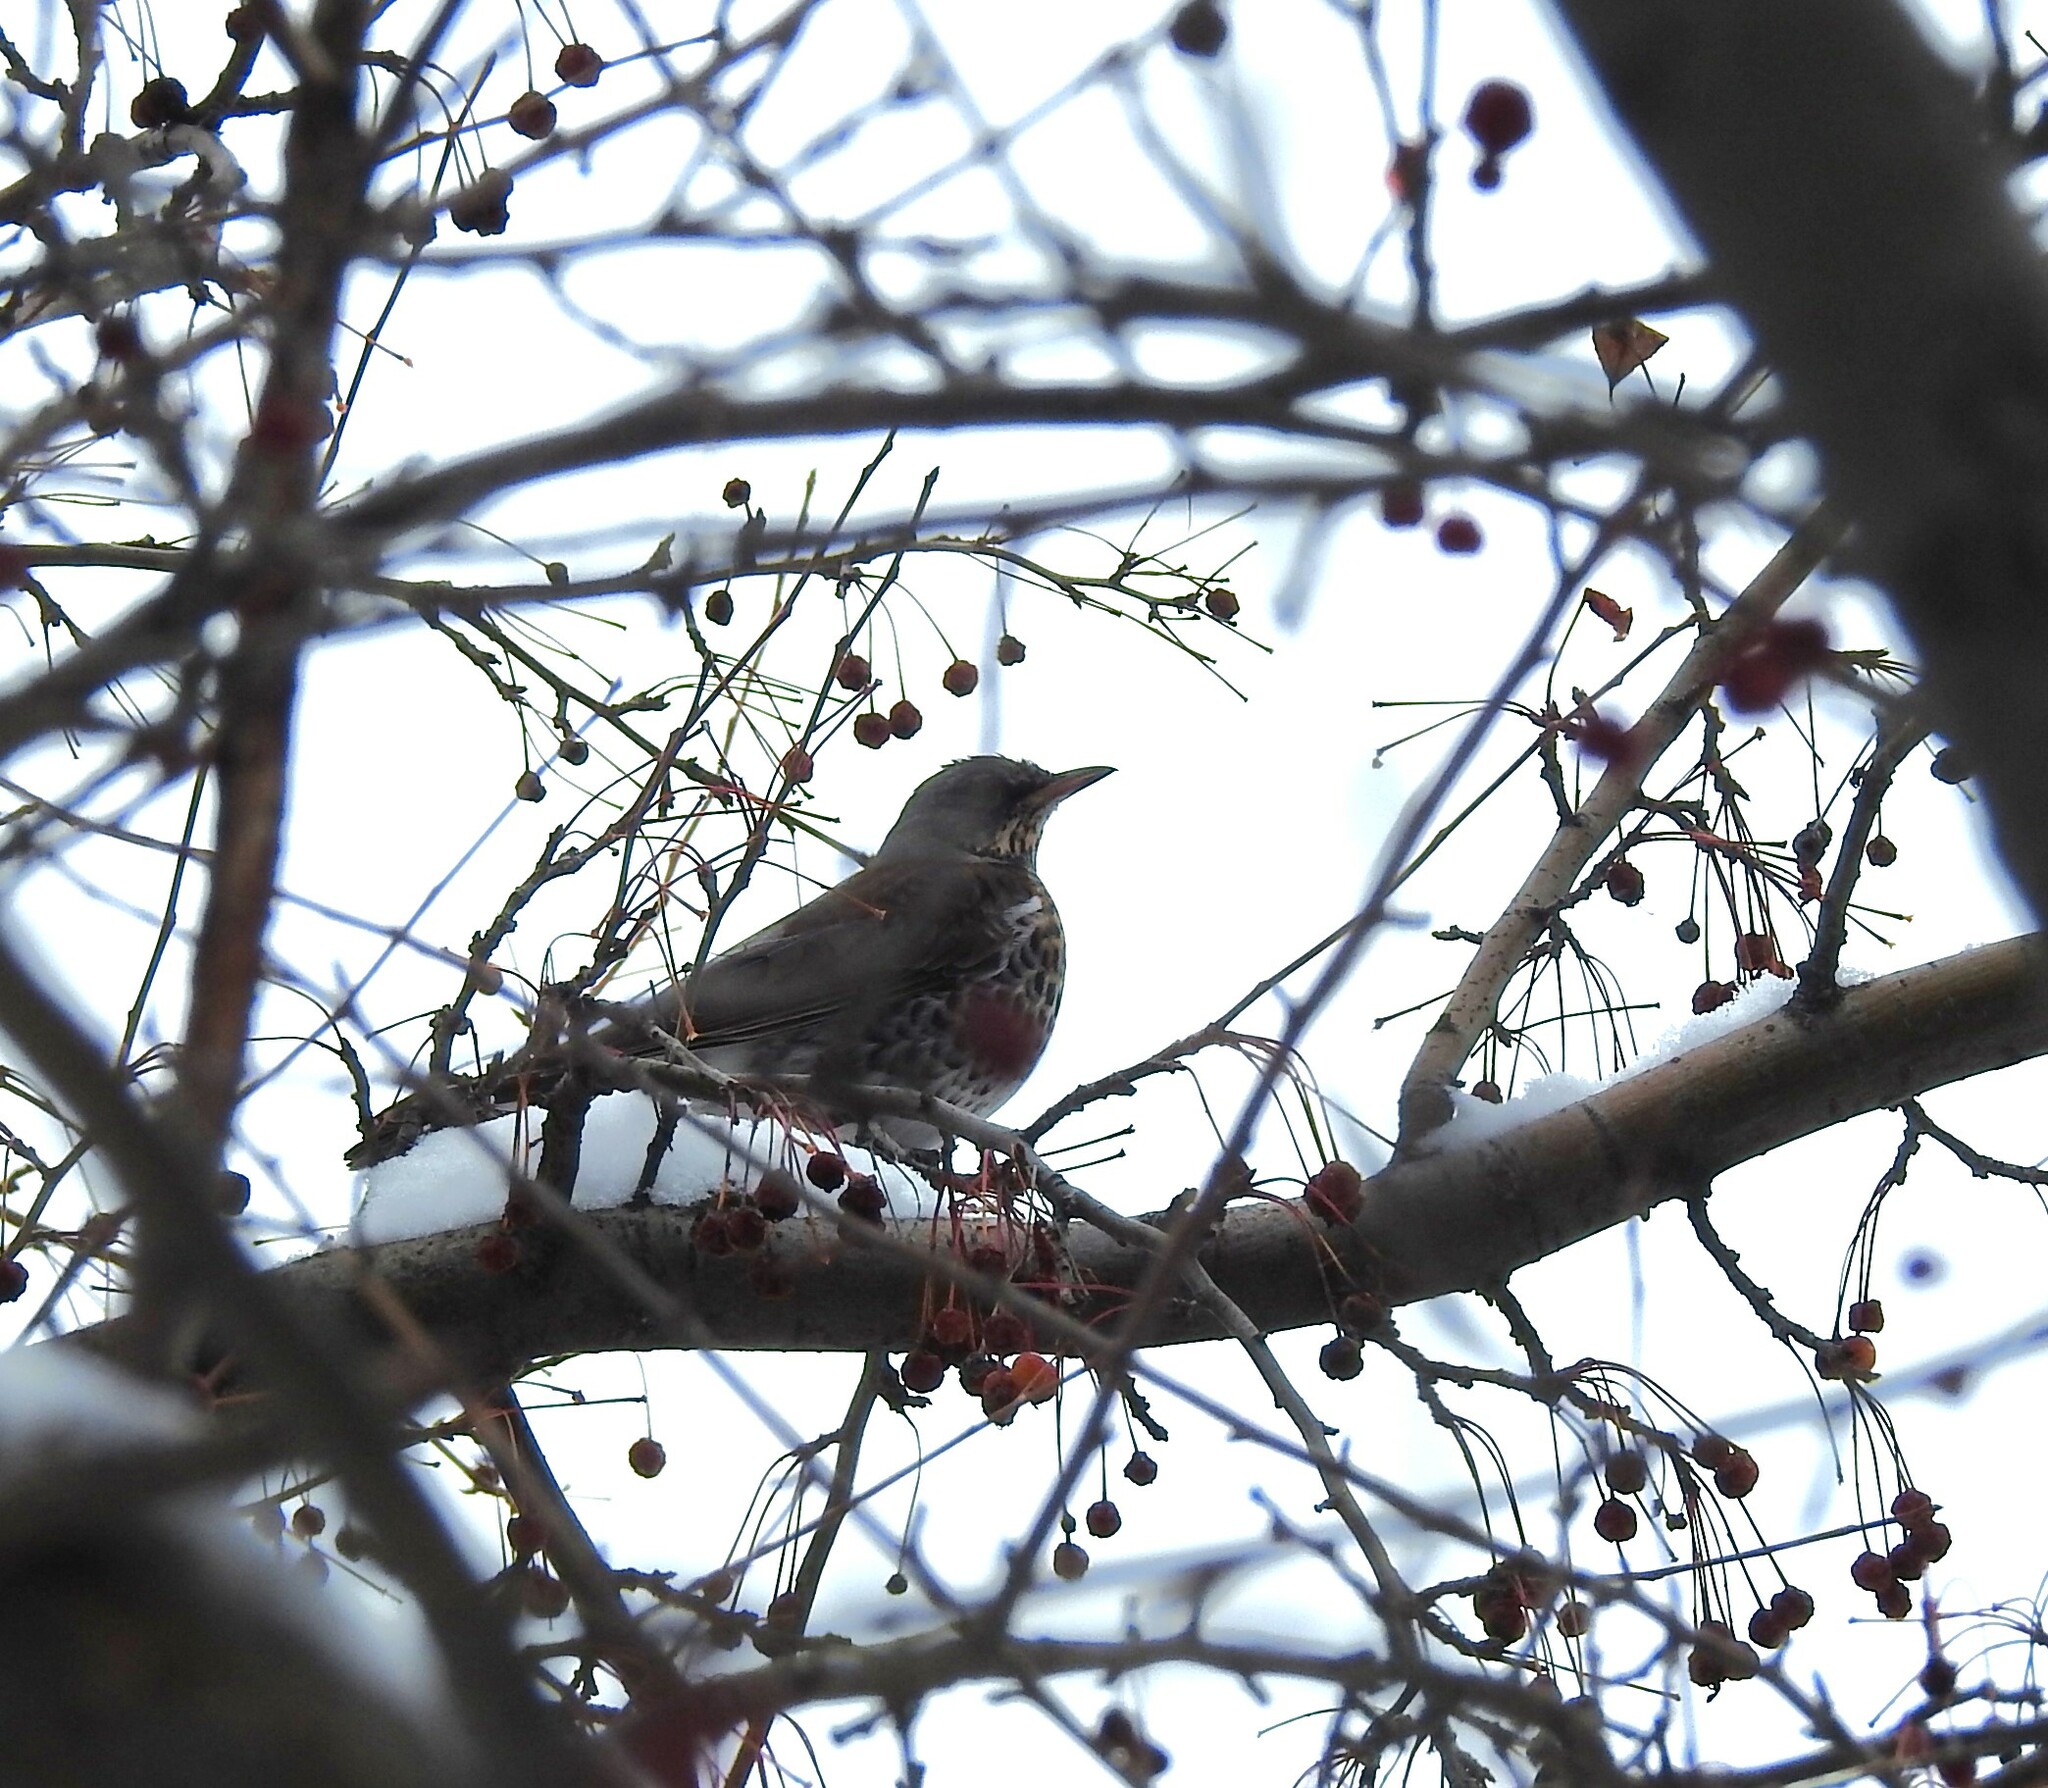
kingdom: Animalia
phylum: Chordata
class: Aves
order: Passeriformes
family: Turdidae
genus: Turdus
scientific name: Turdus pilaris
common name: Fieldfare
